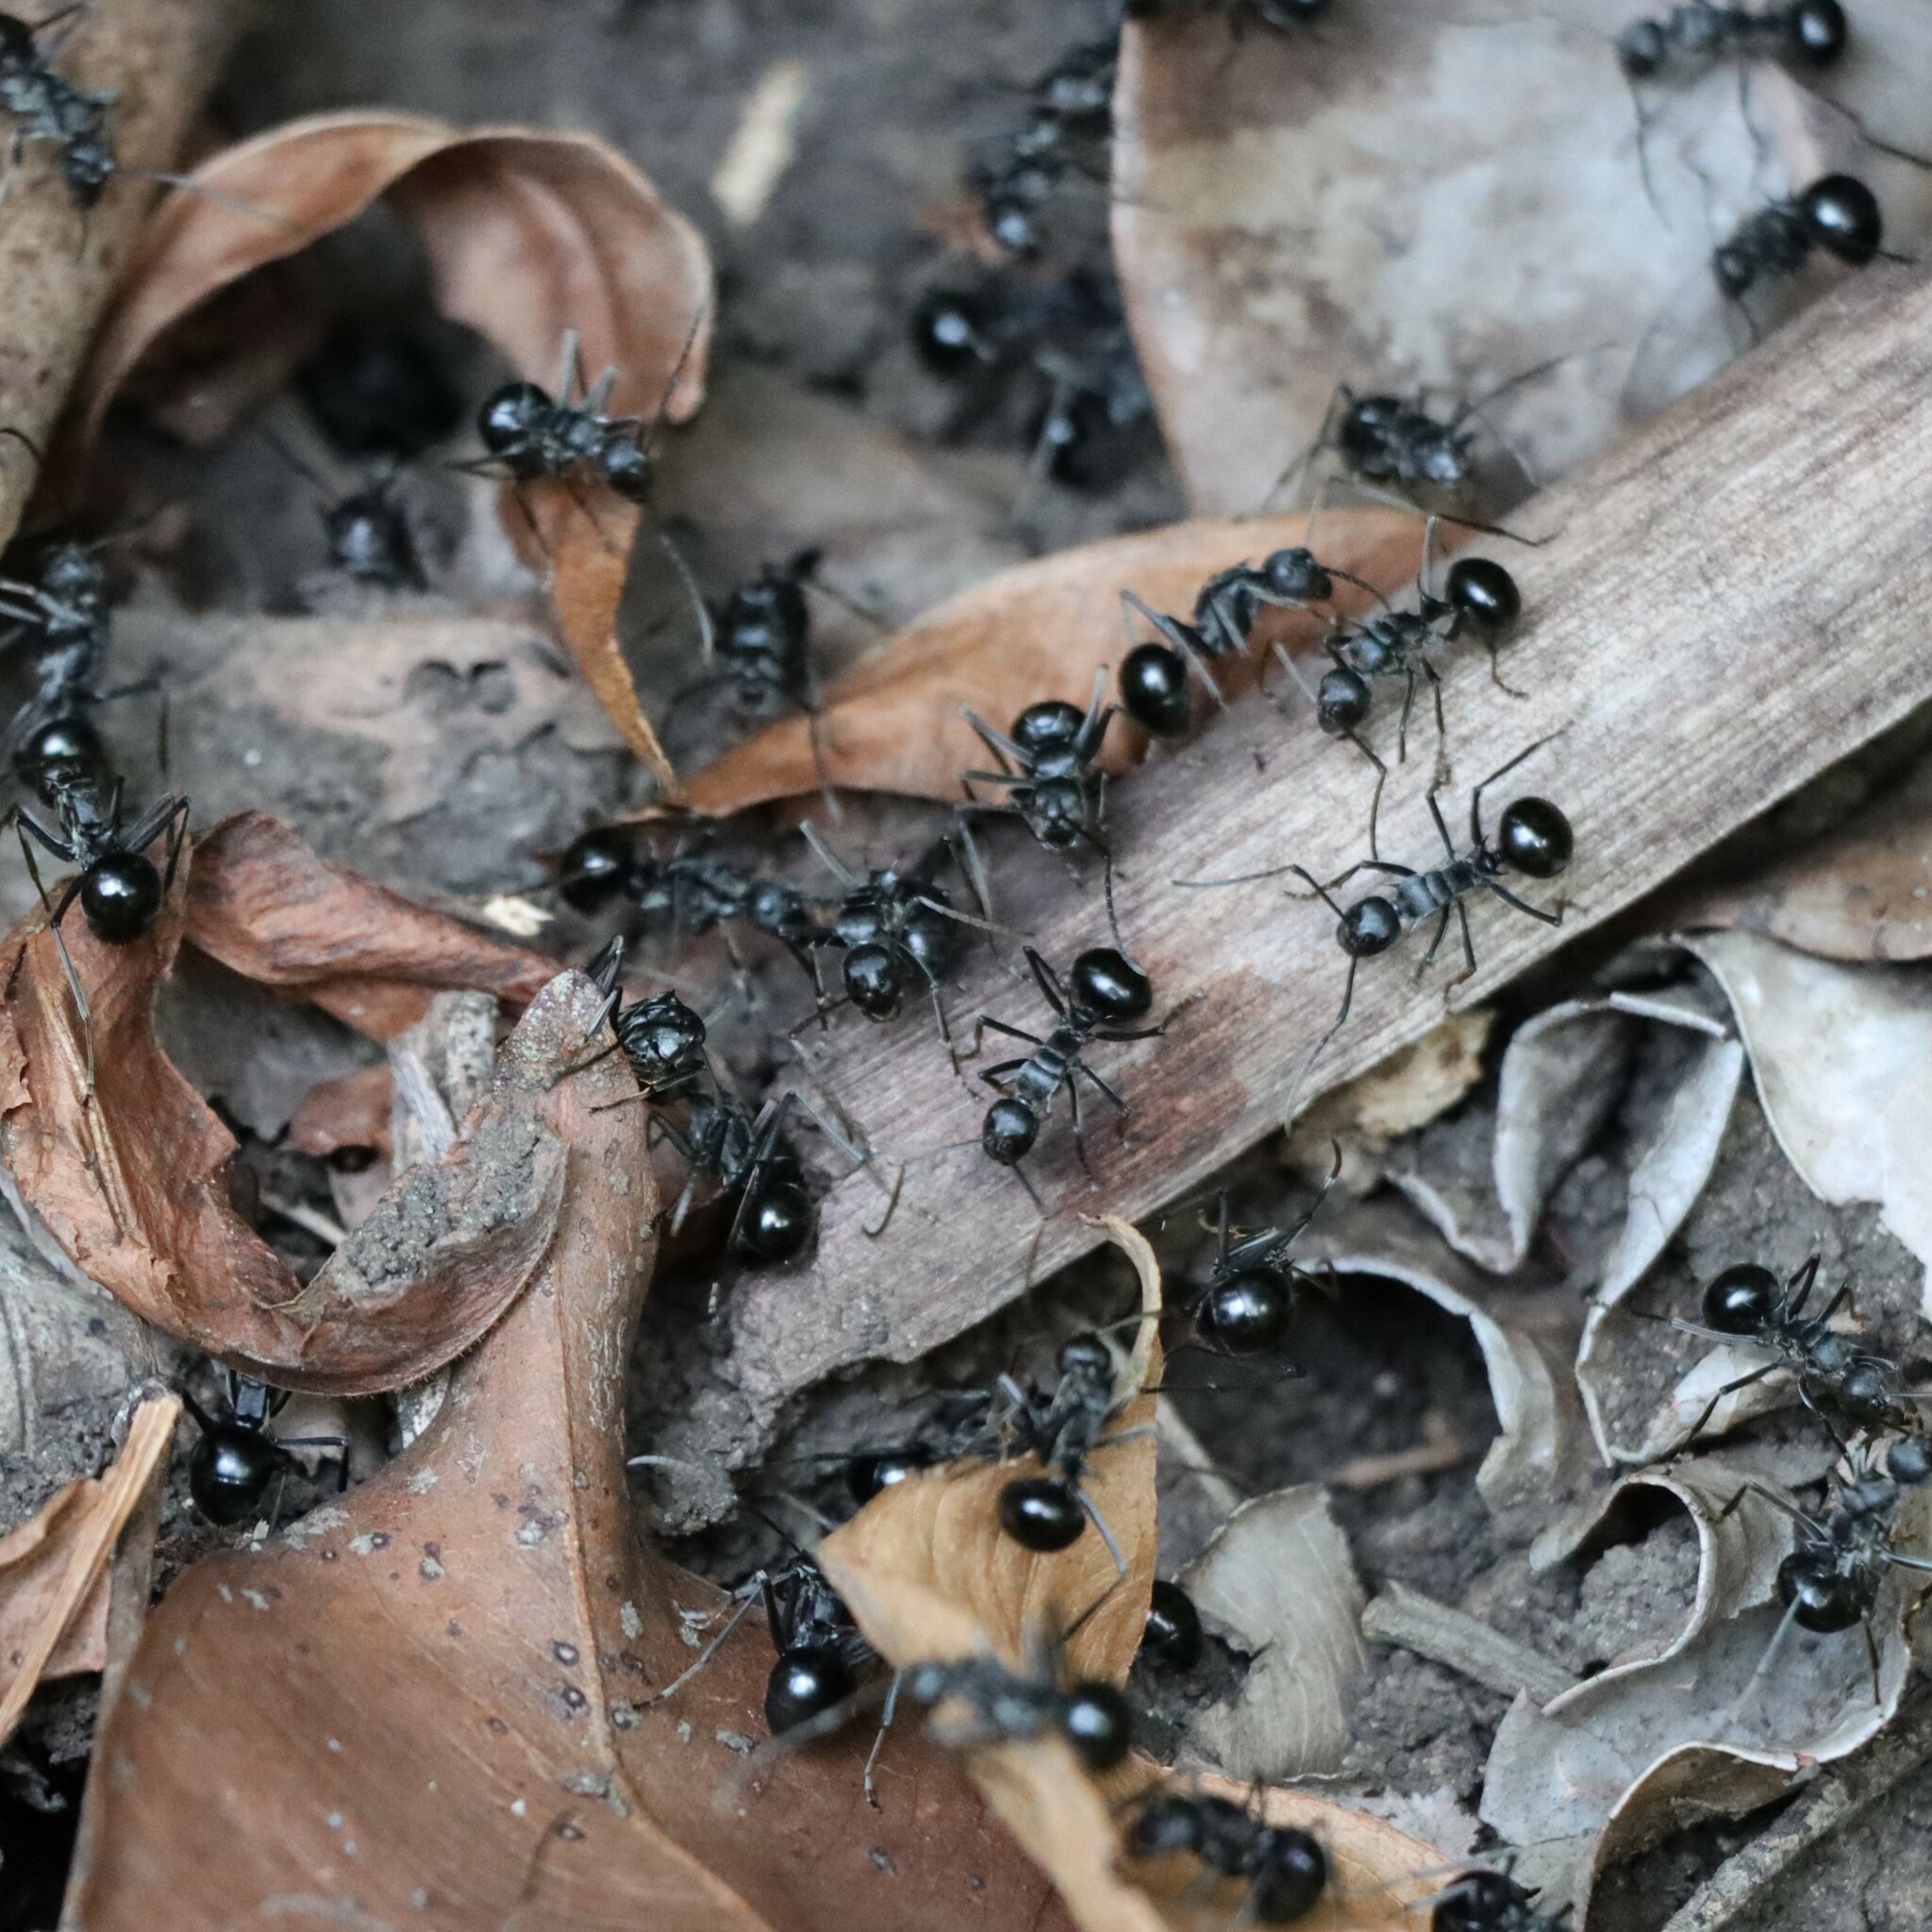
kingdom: Animalia
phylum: Arthropoda
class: Insecta
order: Hymenoptera
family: Formicidae
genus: Polyrhachis
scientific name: Polyrhachis gagates
